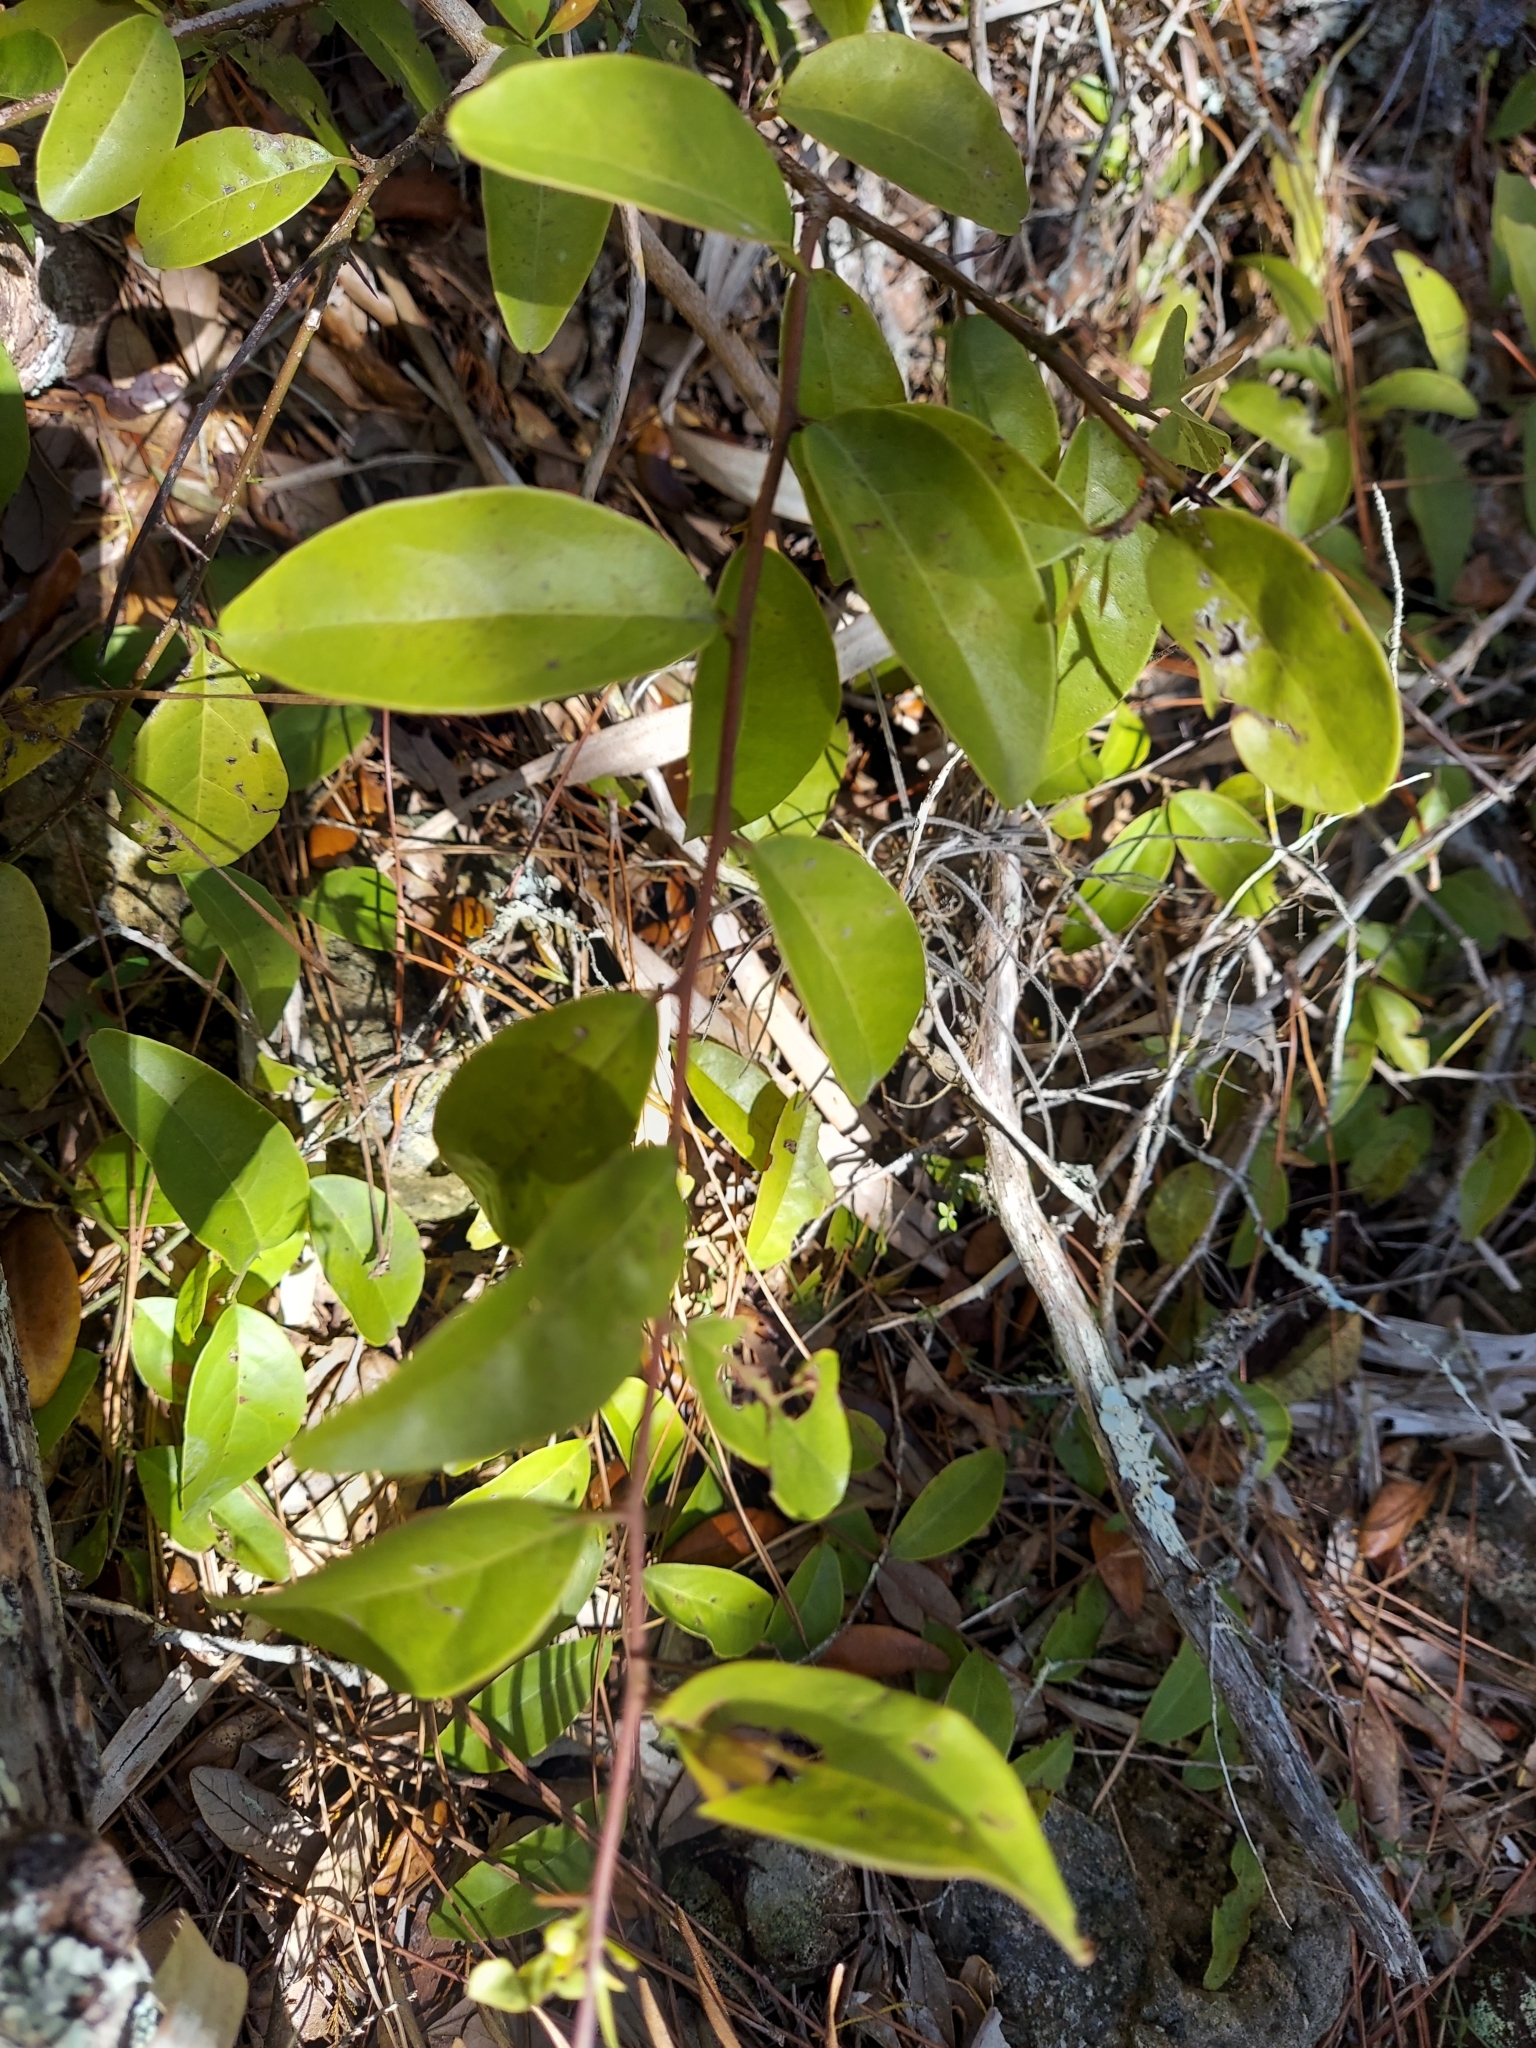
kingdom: Plantae
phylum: Tracheophyta
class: Magnoliopsida
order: Santalales
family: Ximeniaceae
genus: Ximenia
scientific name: Ximenia americana
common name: Tallowwood
